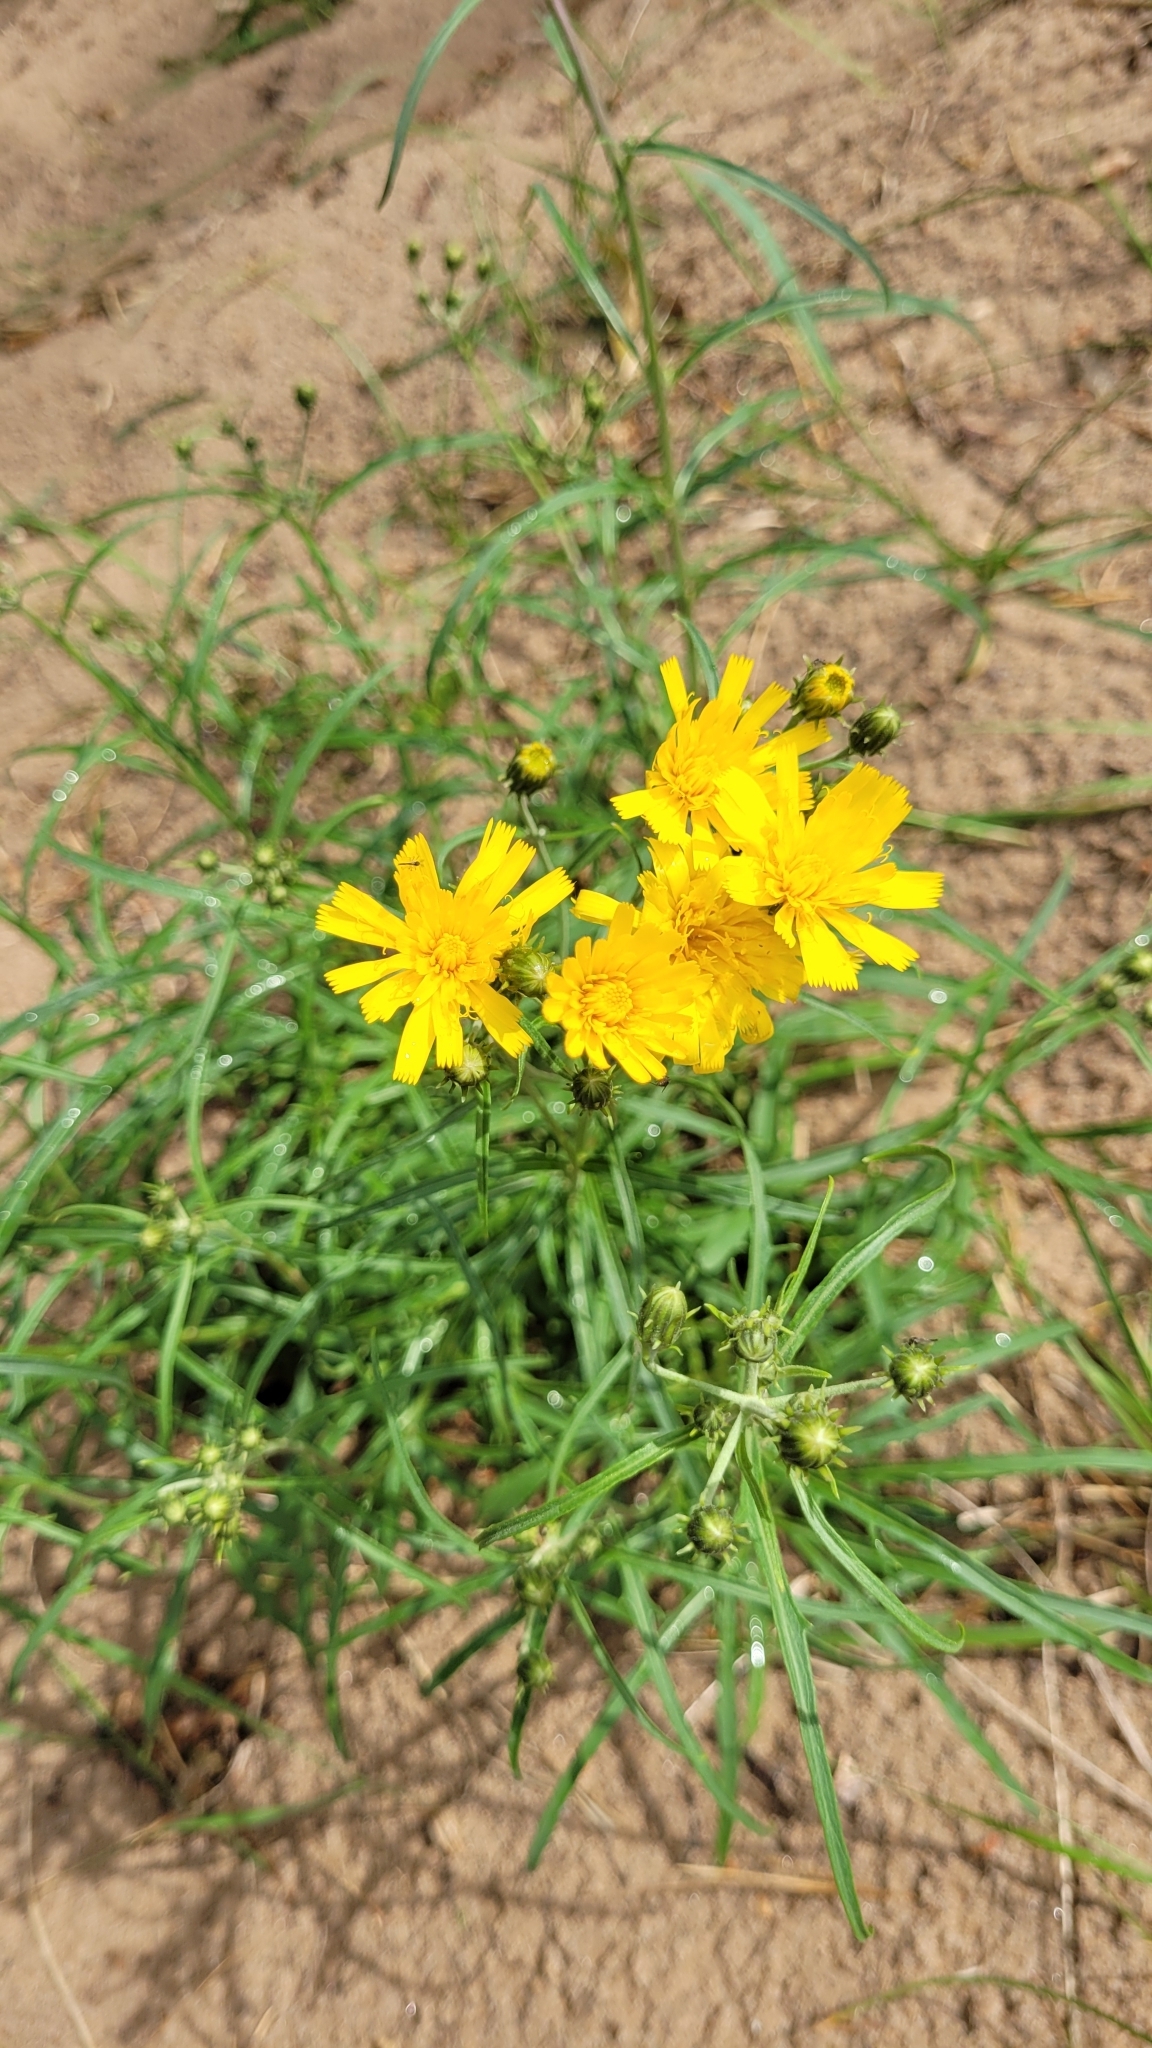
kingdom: Plantae
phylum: Tracheophyta
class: Magnoliopsida
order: Asterales
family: Asteraceae
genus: Hieracium
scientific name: Hieracium umbellatum
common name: Northern hawkweed
